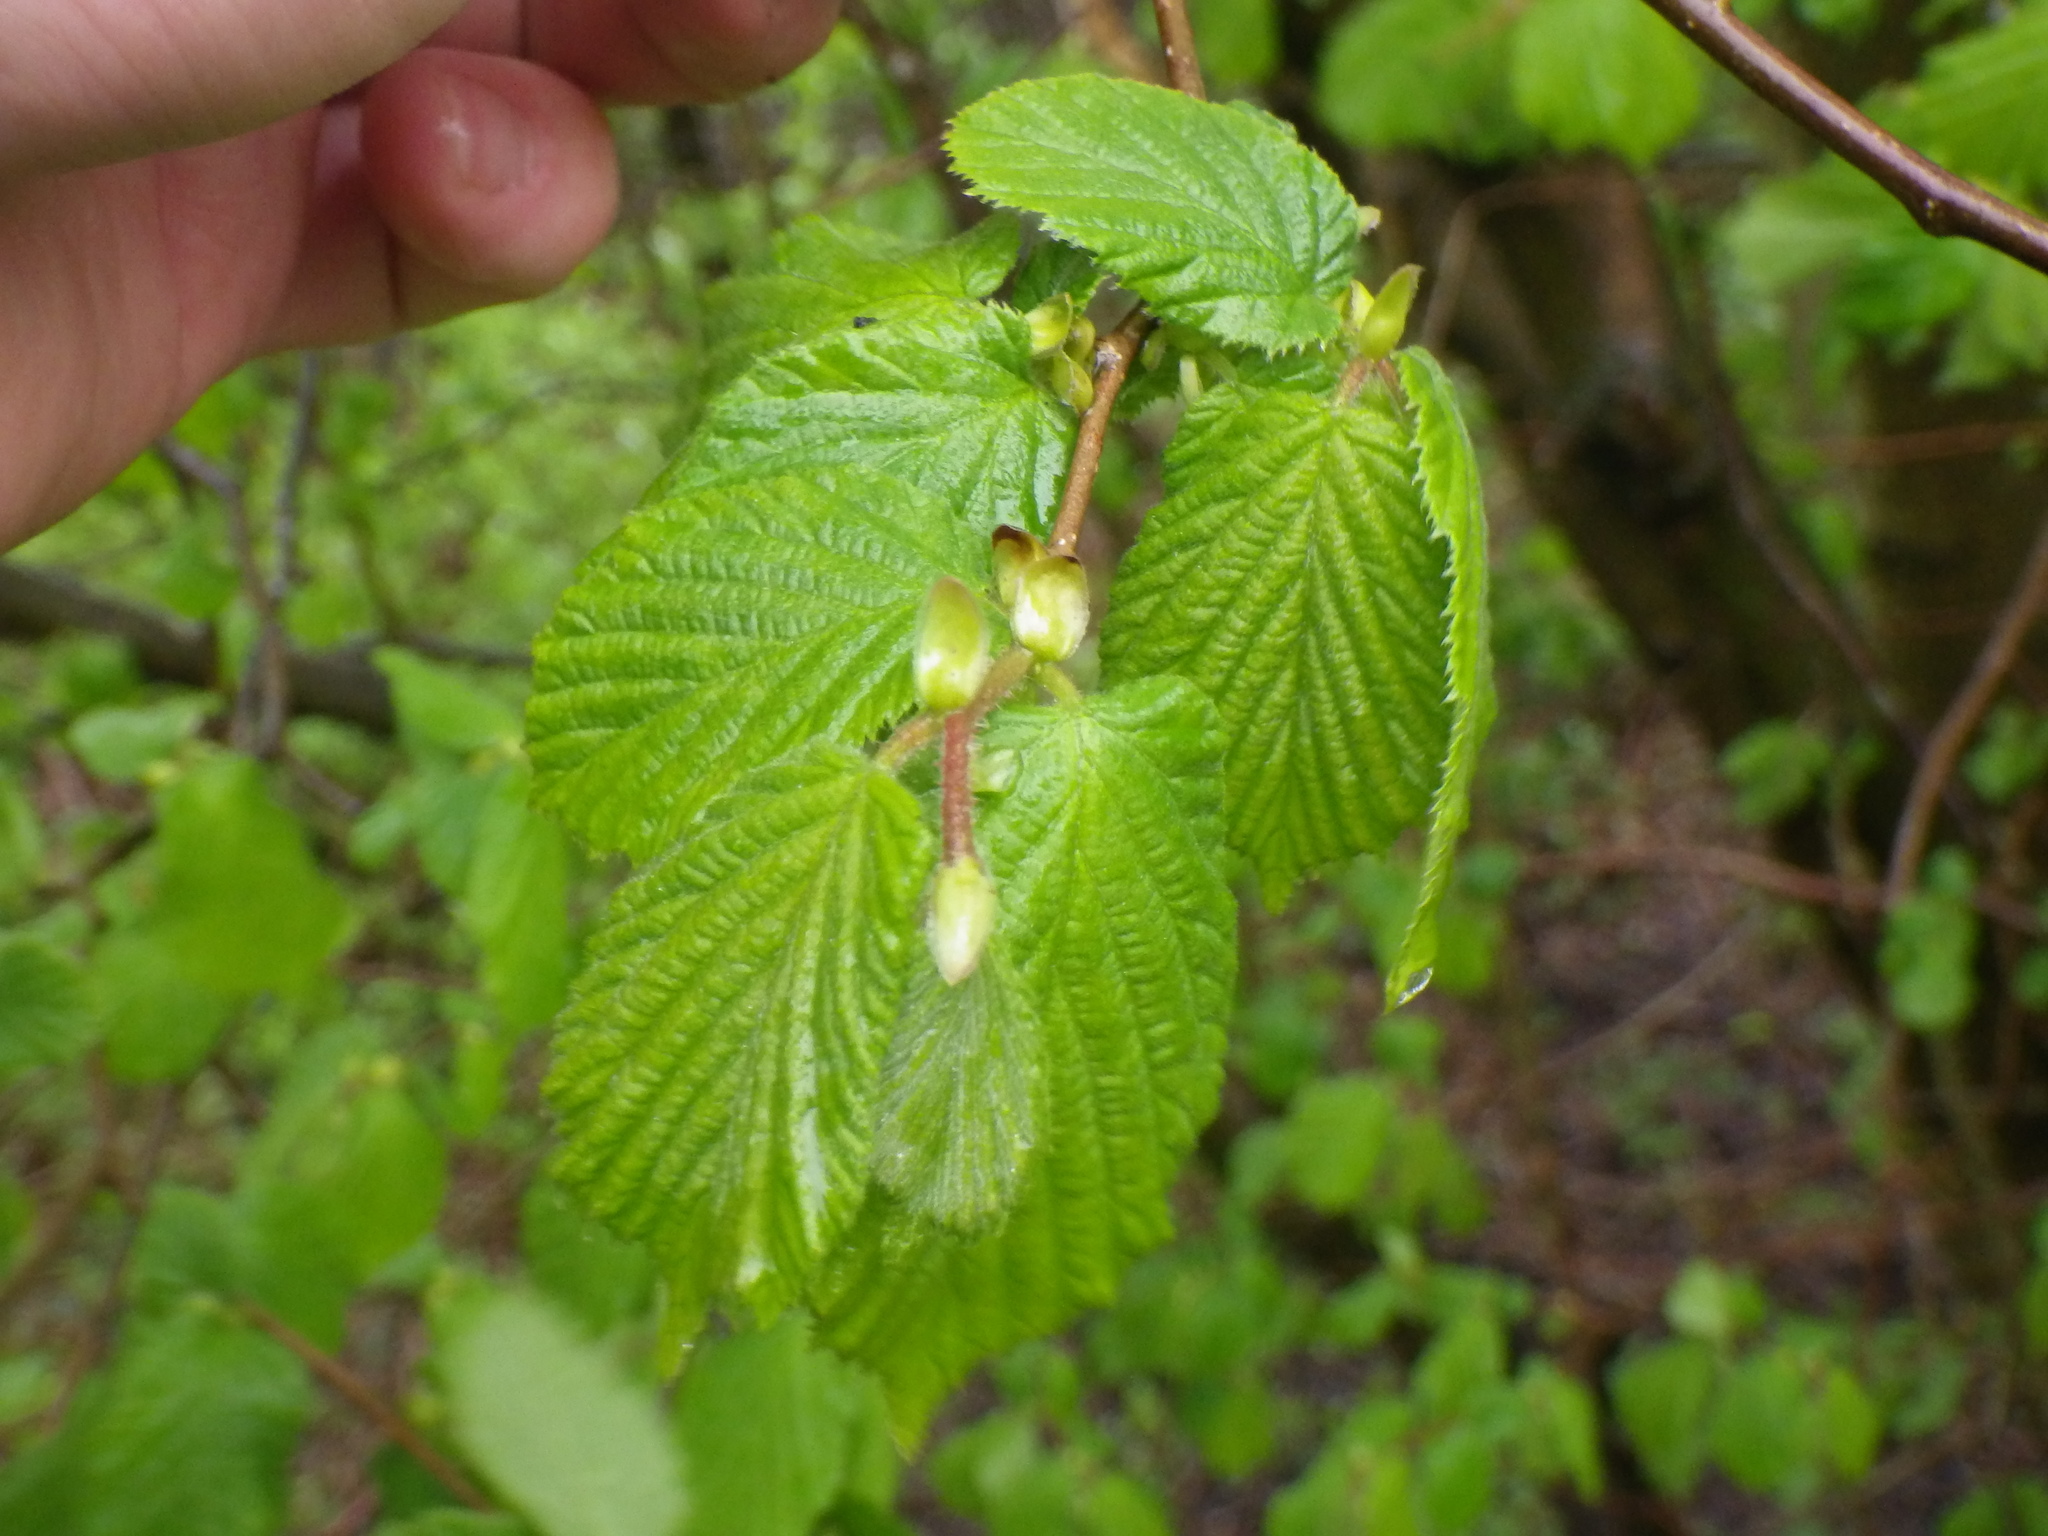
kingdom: Plantae
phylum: Tracheophyta
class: Magnoliopsida
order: Fagales
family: Betulaceae
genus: Corylus
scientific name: Corylus avellana
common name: European hazel
